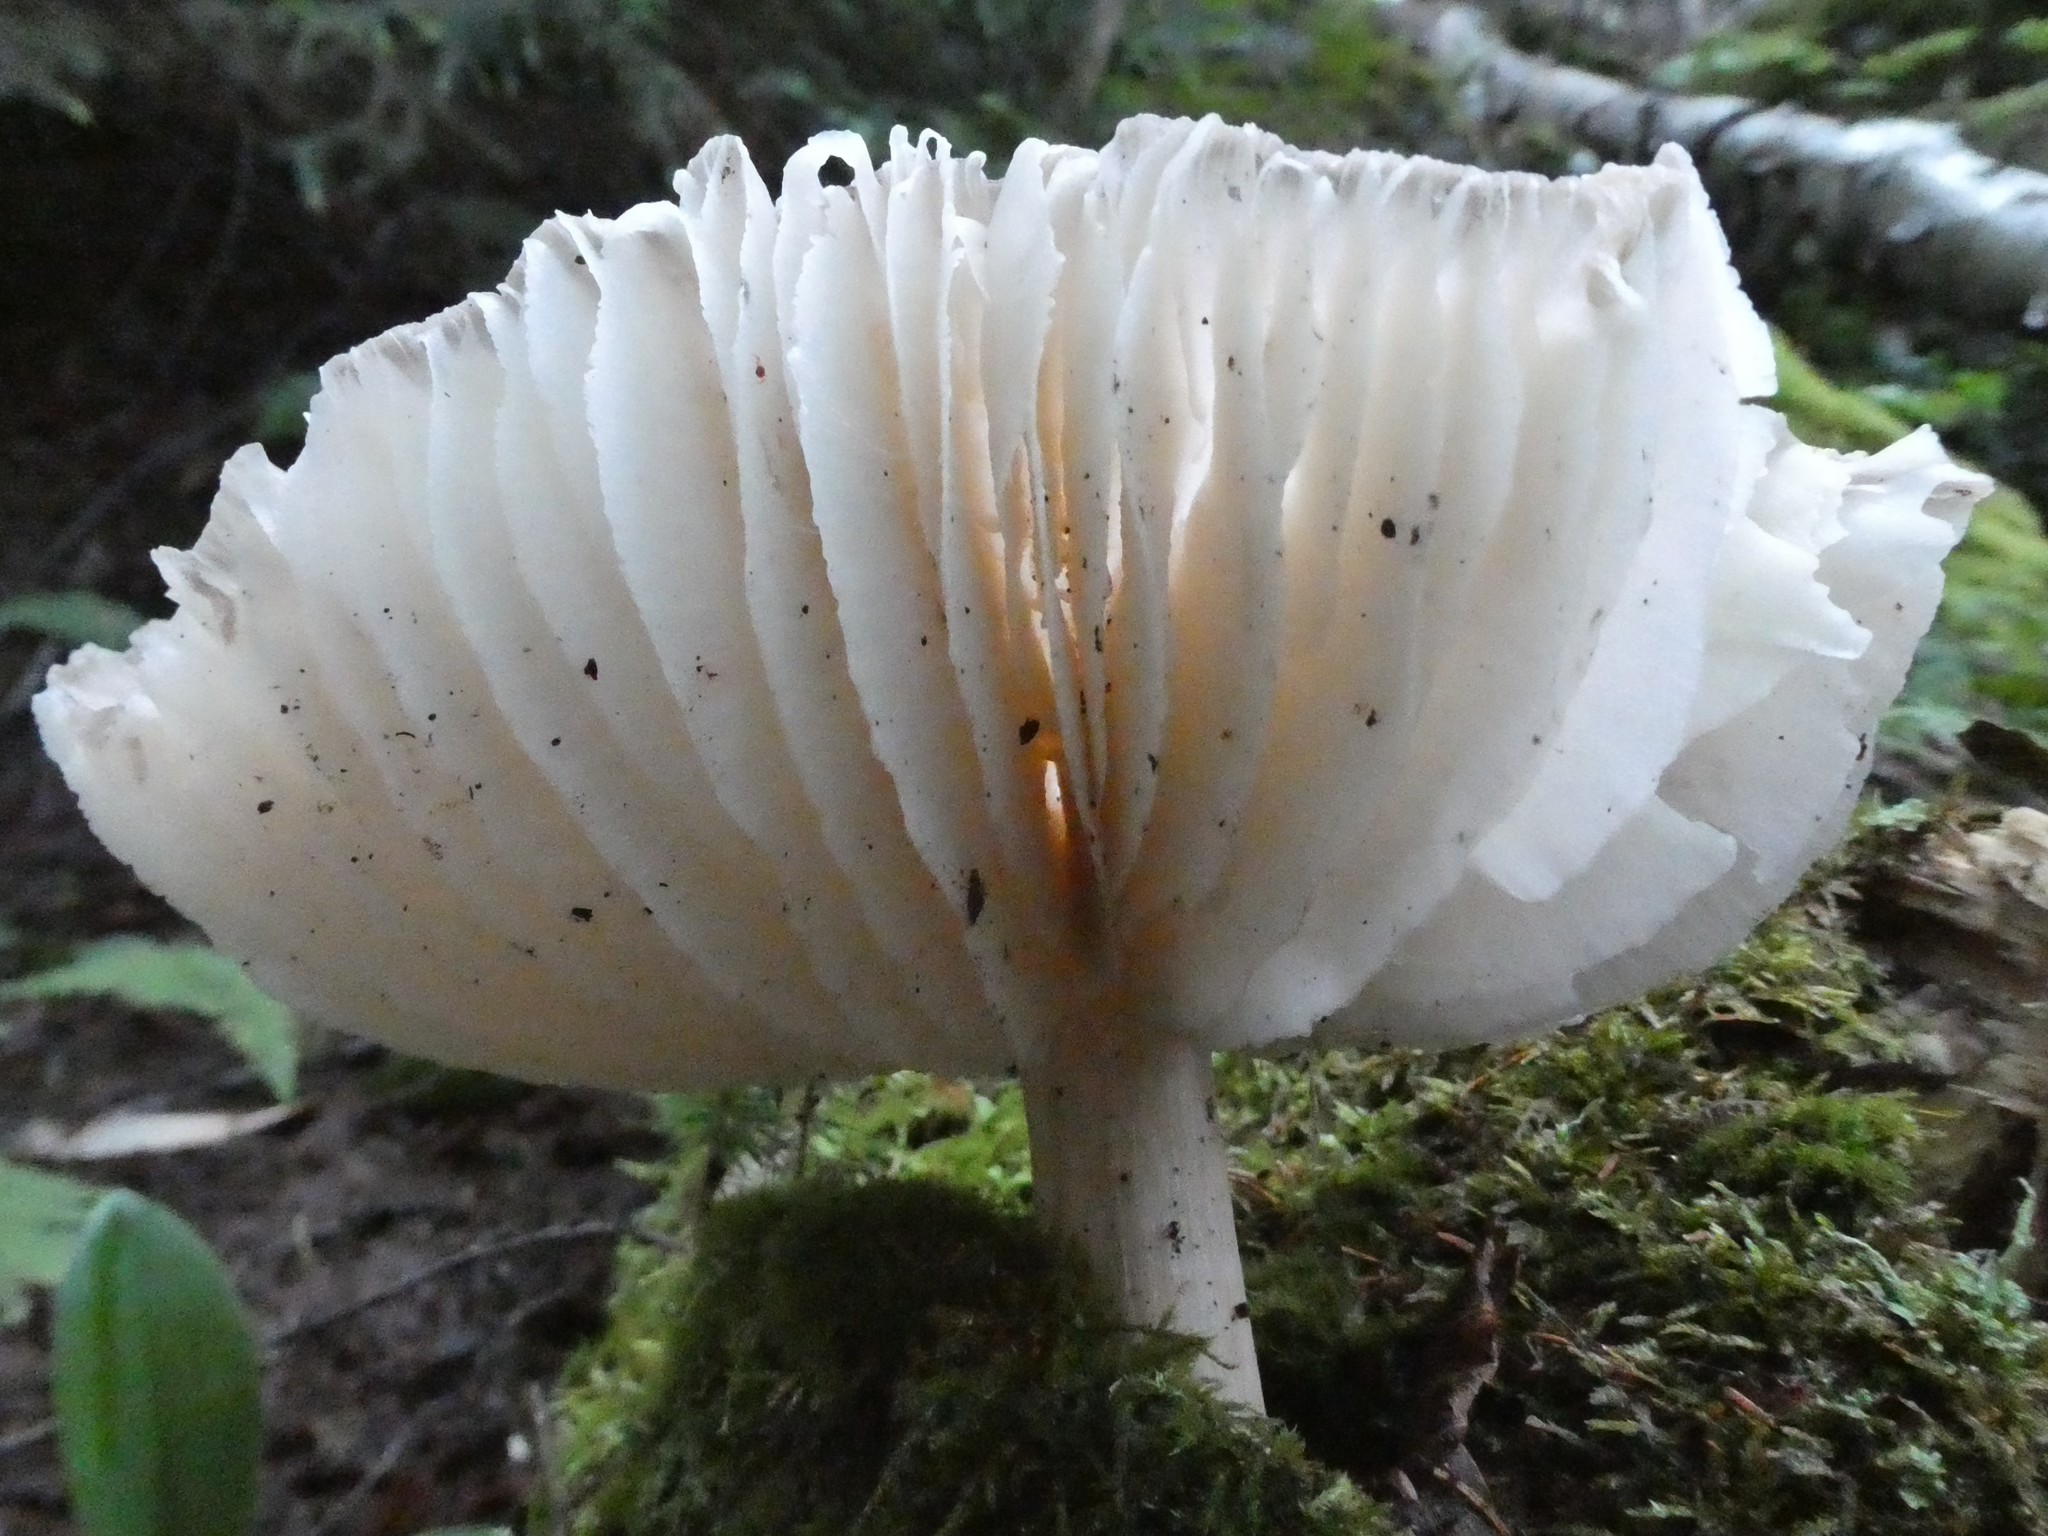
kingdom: Fungi
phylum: Basidiomycota
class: Agaricomycetes
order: Agaricales
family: Tricholomataceae
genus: Megacollybia
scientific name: Megacollybia rodmanii
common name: Eastern american platterful mushroom
